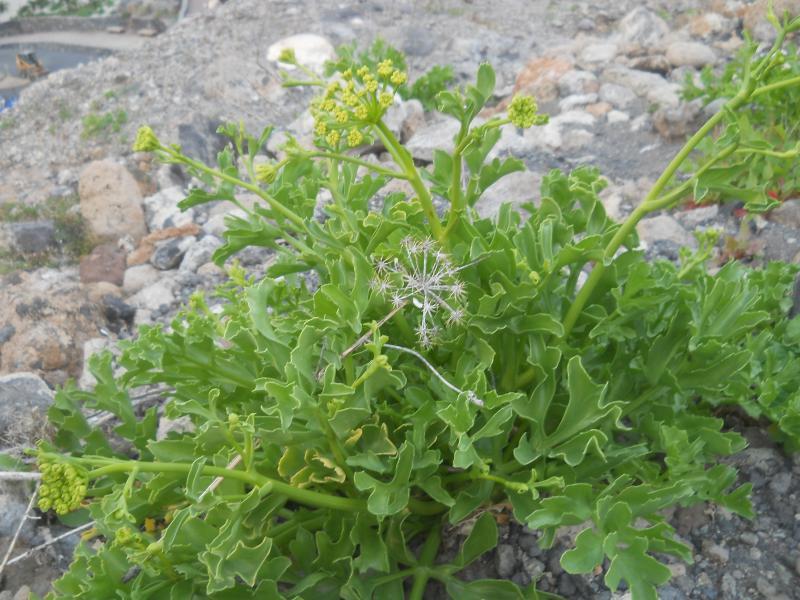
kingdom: Plantae
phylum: Tracheophyta
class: Magnoliopsida
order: Apiales
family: Apiaceae
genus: Astydamia
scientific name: Astydamia latifolia
